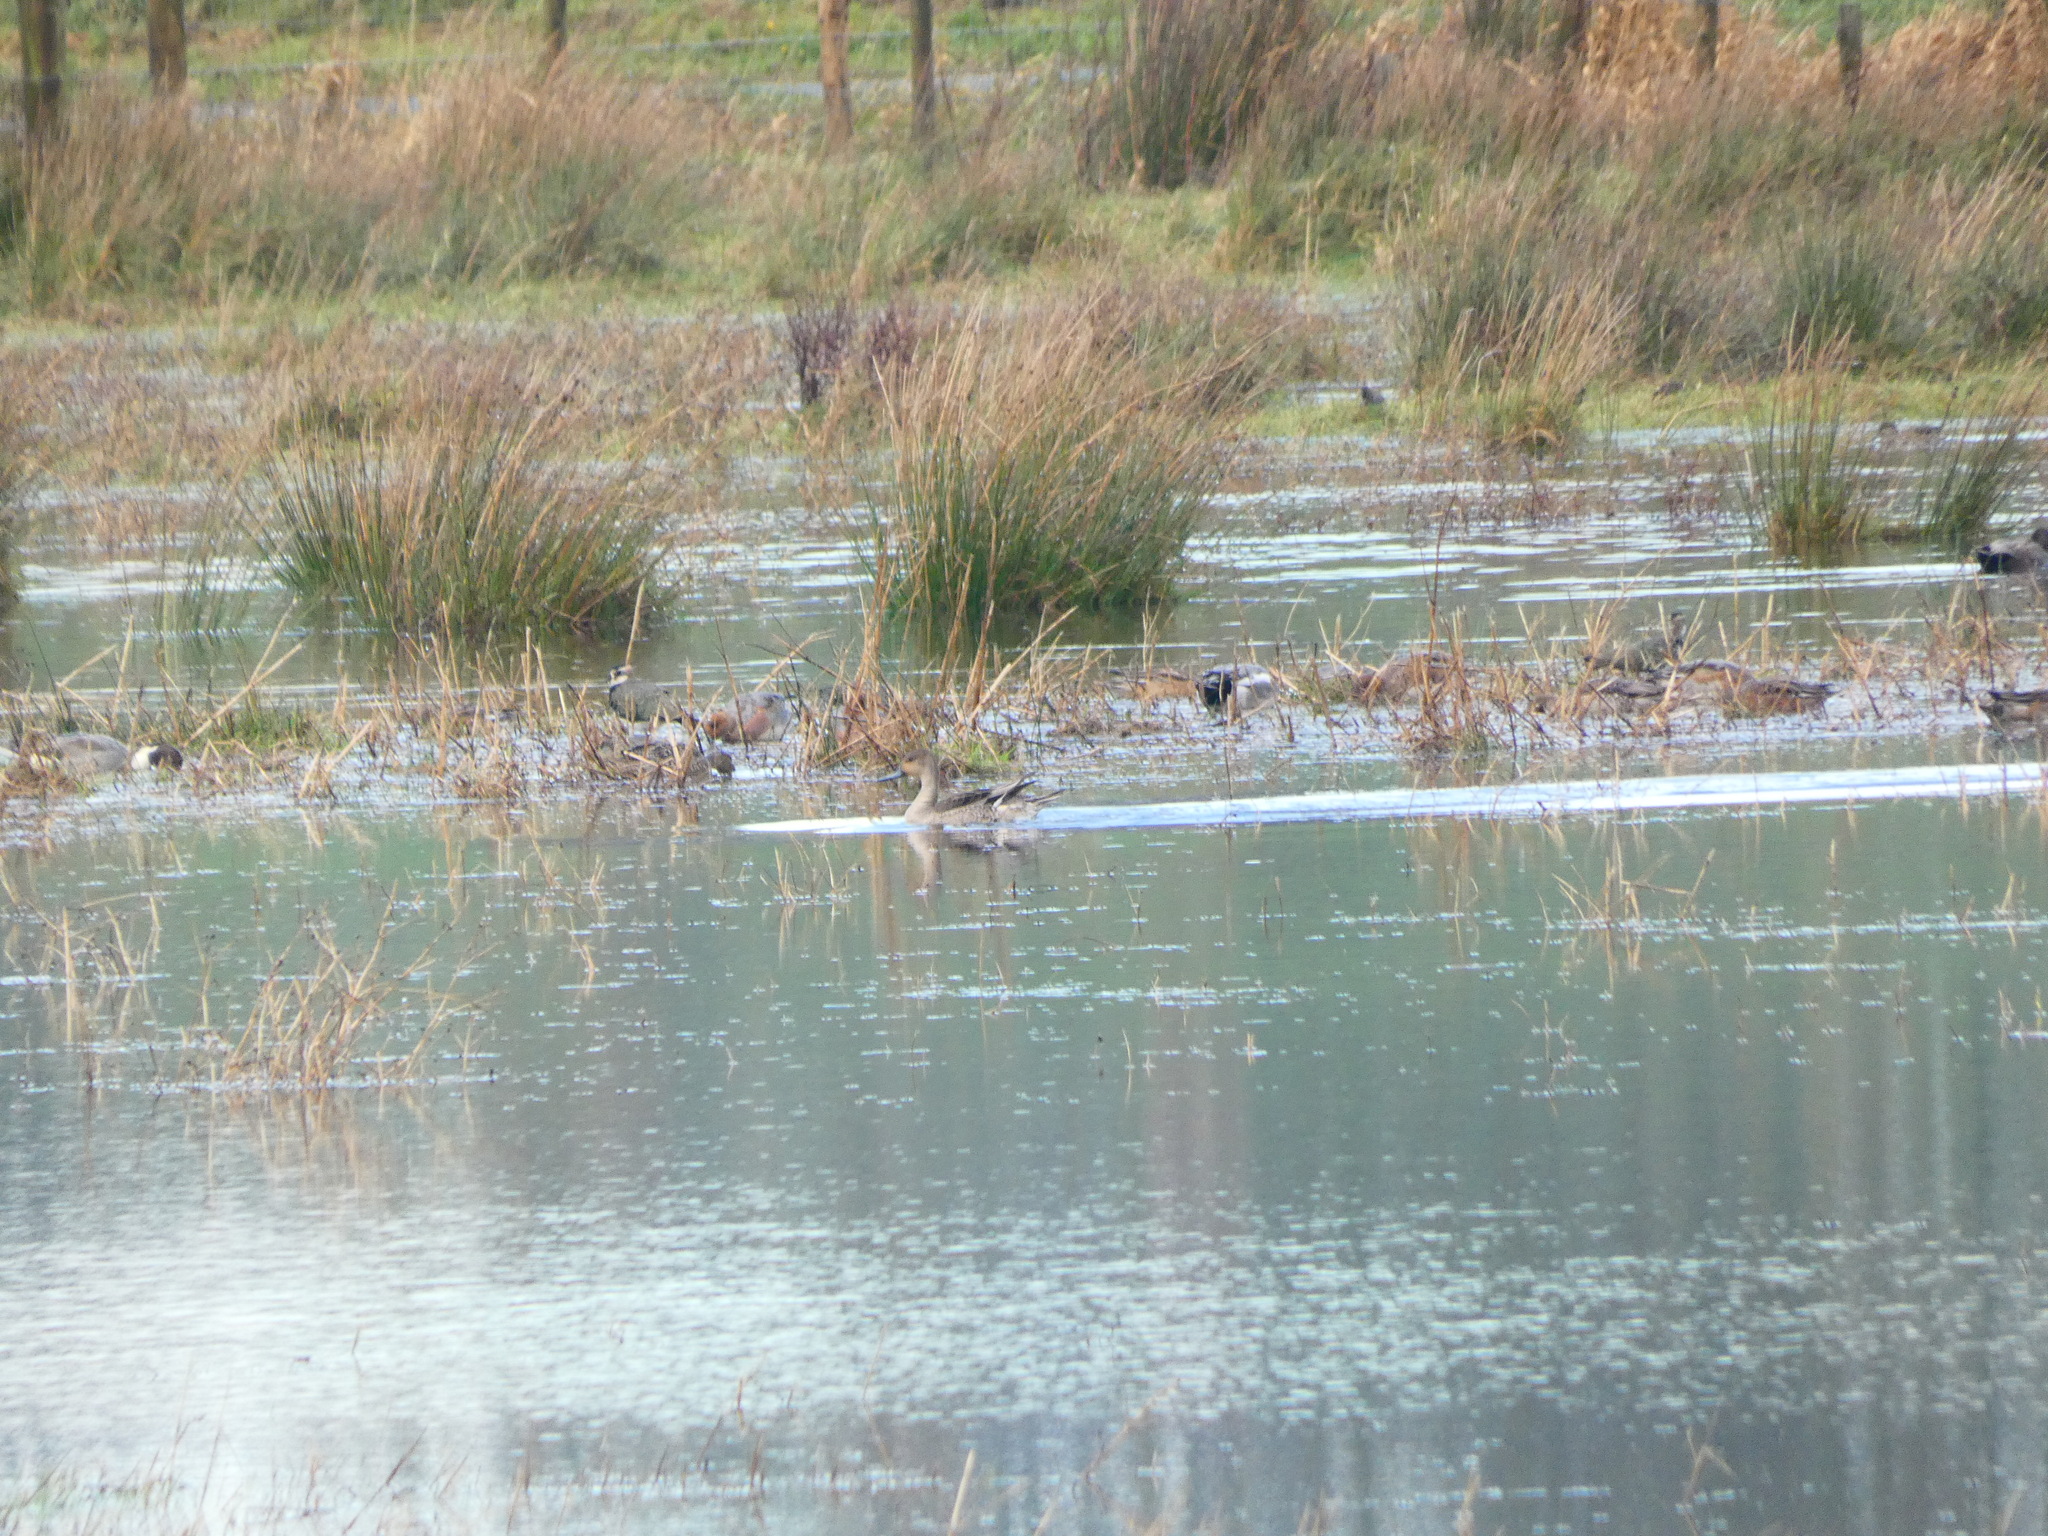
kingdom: Animalia
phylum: Chordata
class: Aves
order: Anseriformes
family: Anatidae
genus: Anas
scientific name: Anas acuta
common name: Northern pintail
